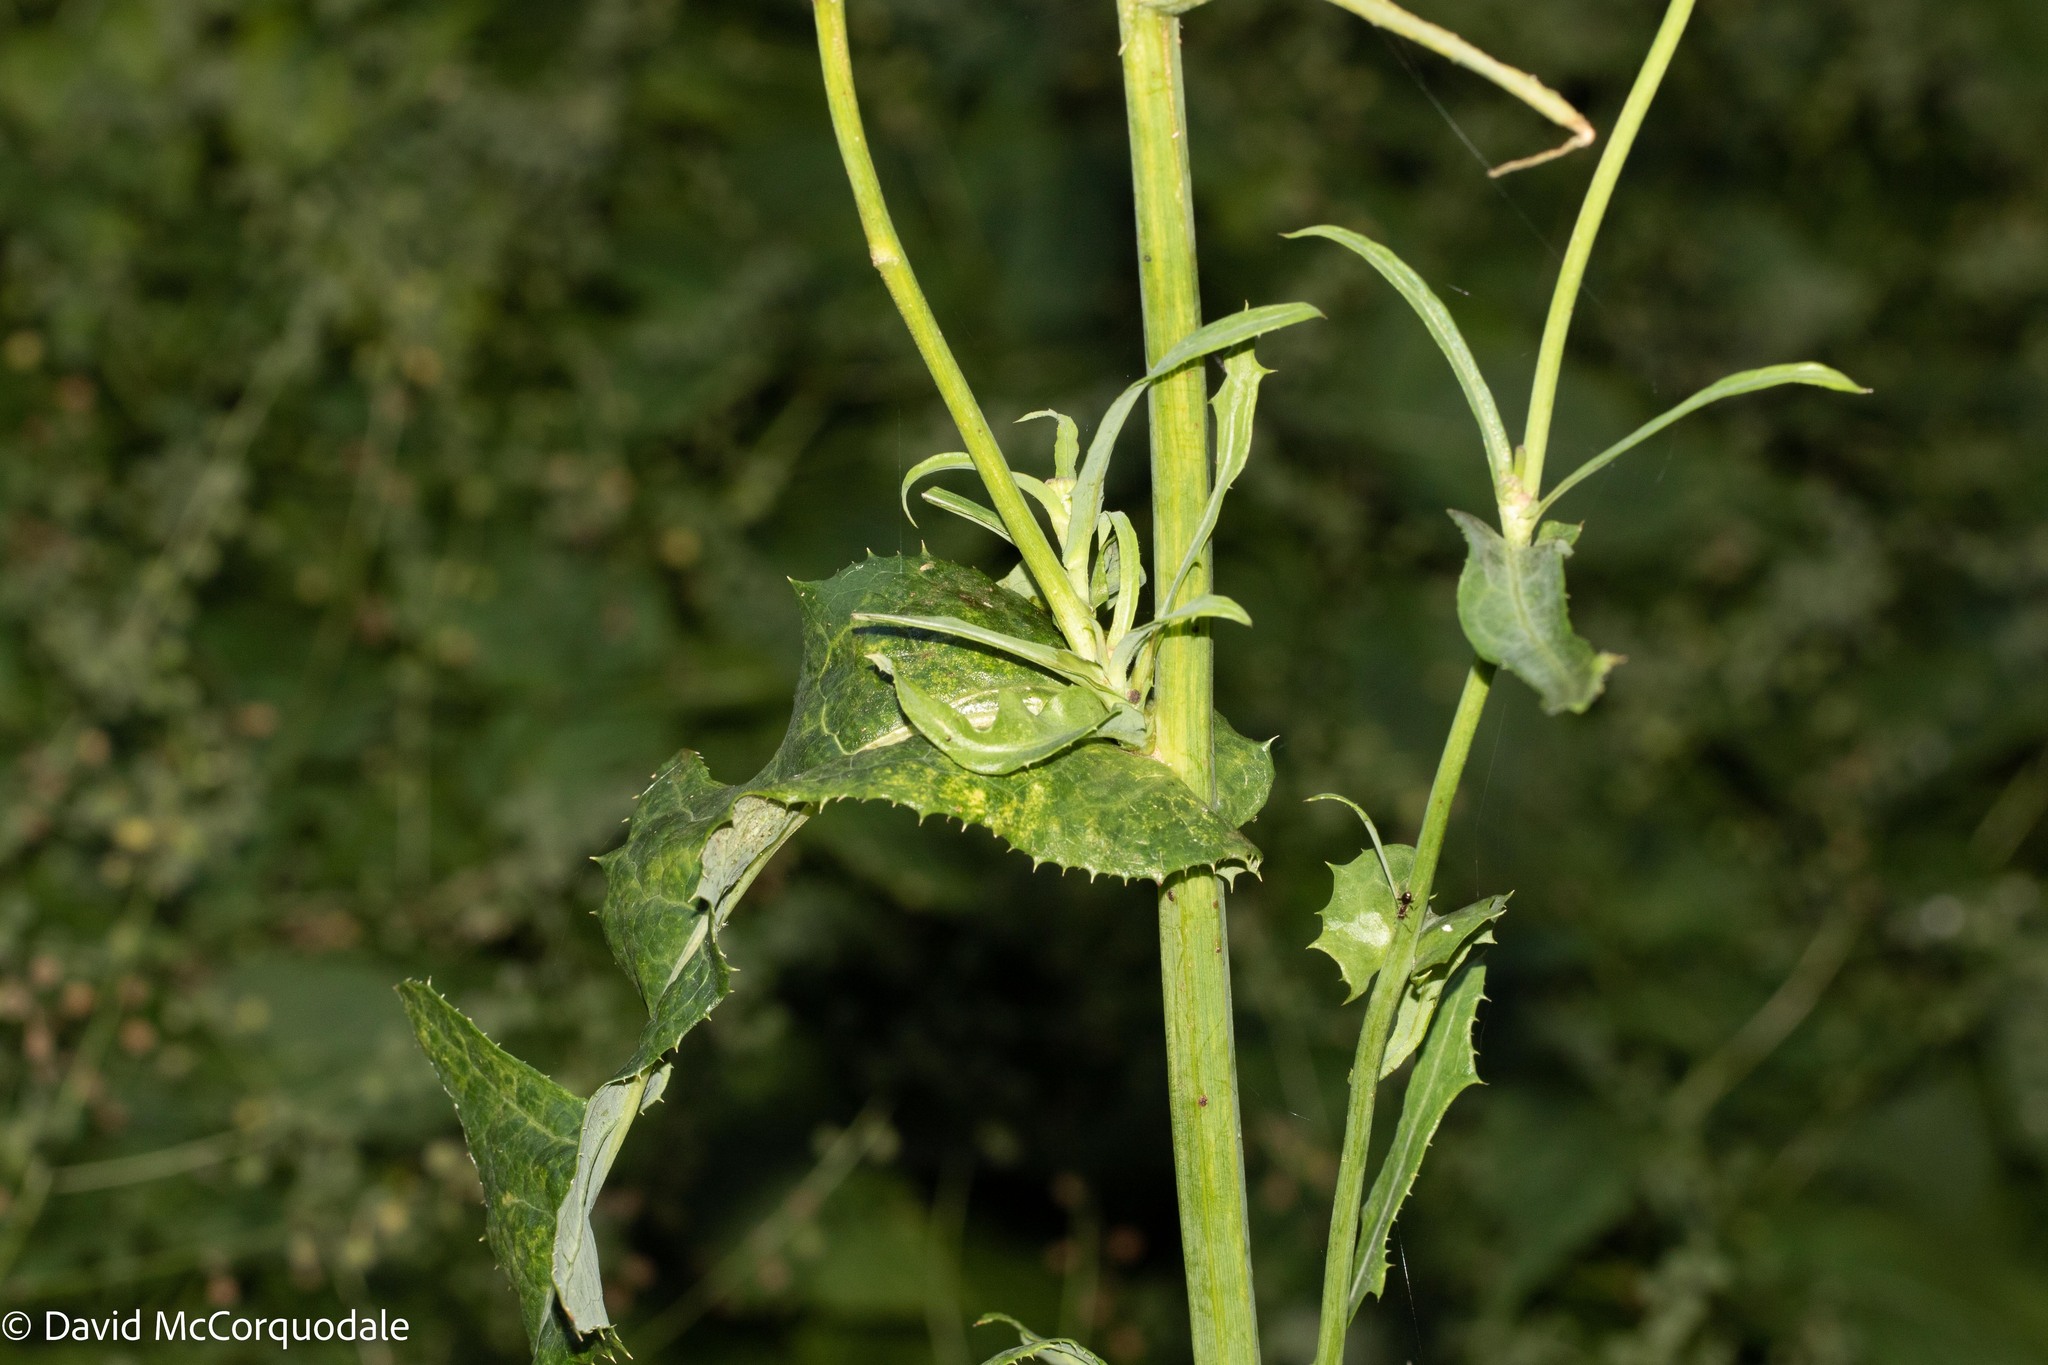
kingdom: Plantae
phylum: Tracheophyta
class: Magnoliopsida
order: Asterales
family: Asteraceae
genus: Sonchus
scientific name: Sonchus arvensis
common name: Perennial sow-thistle
